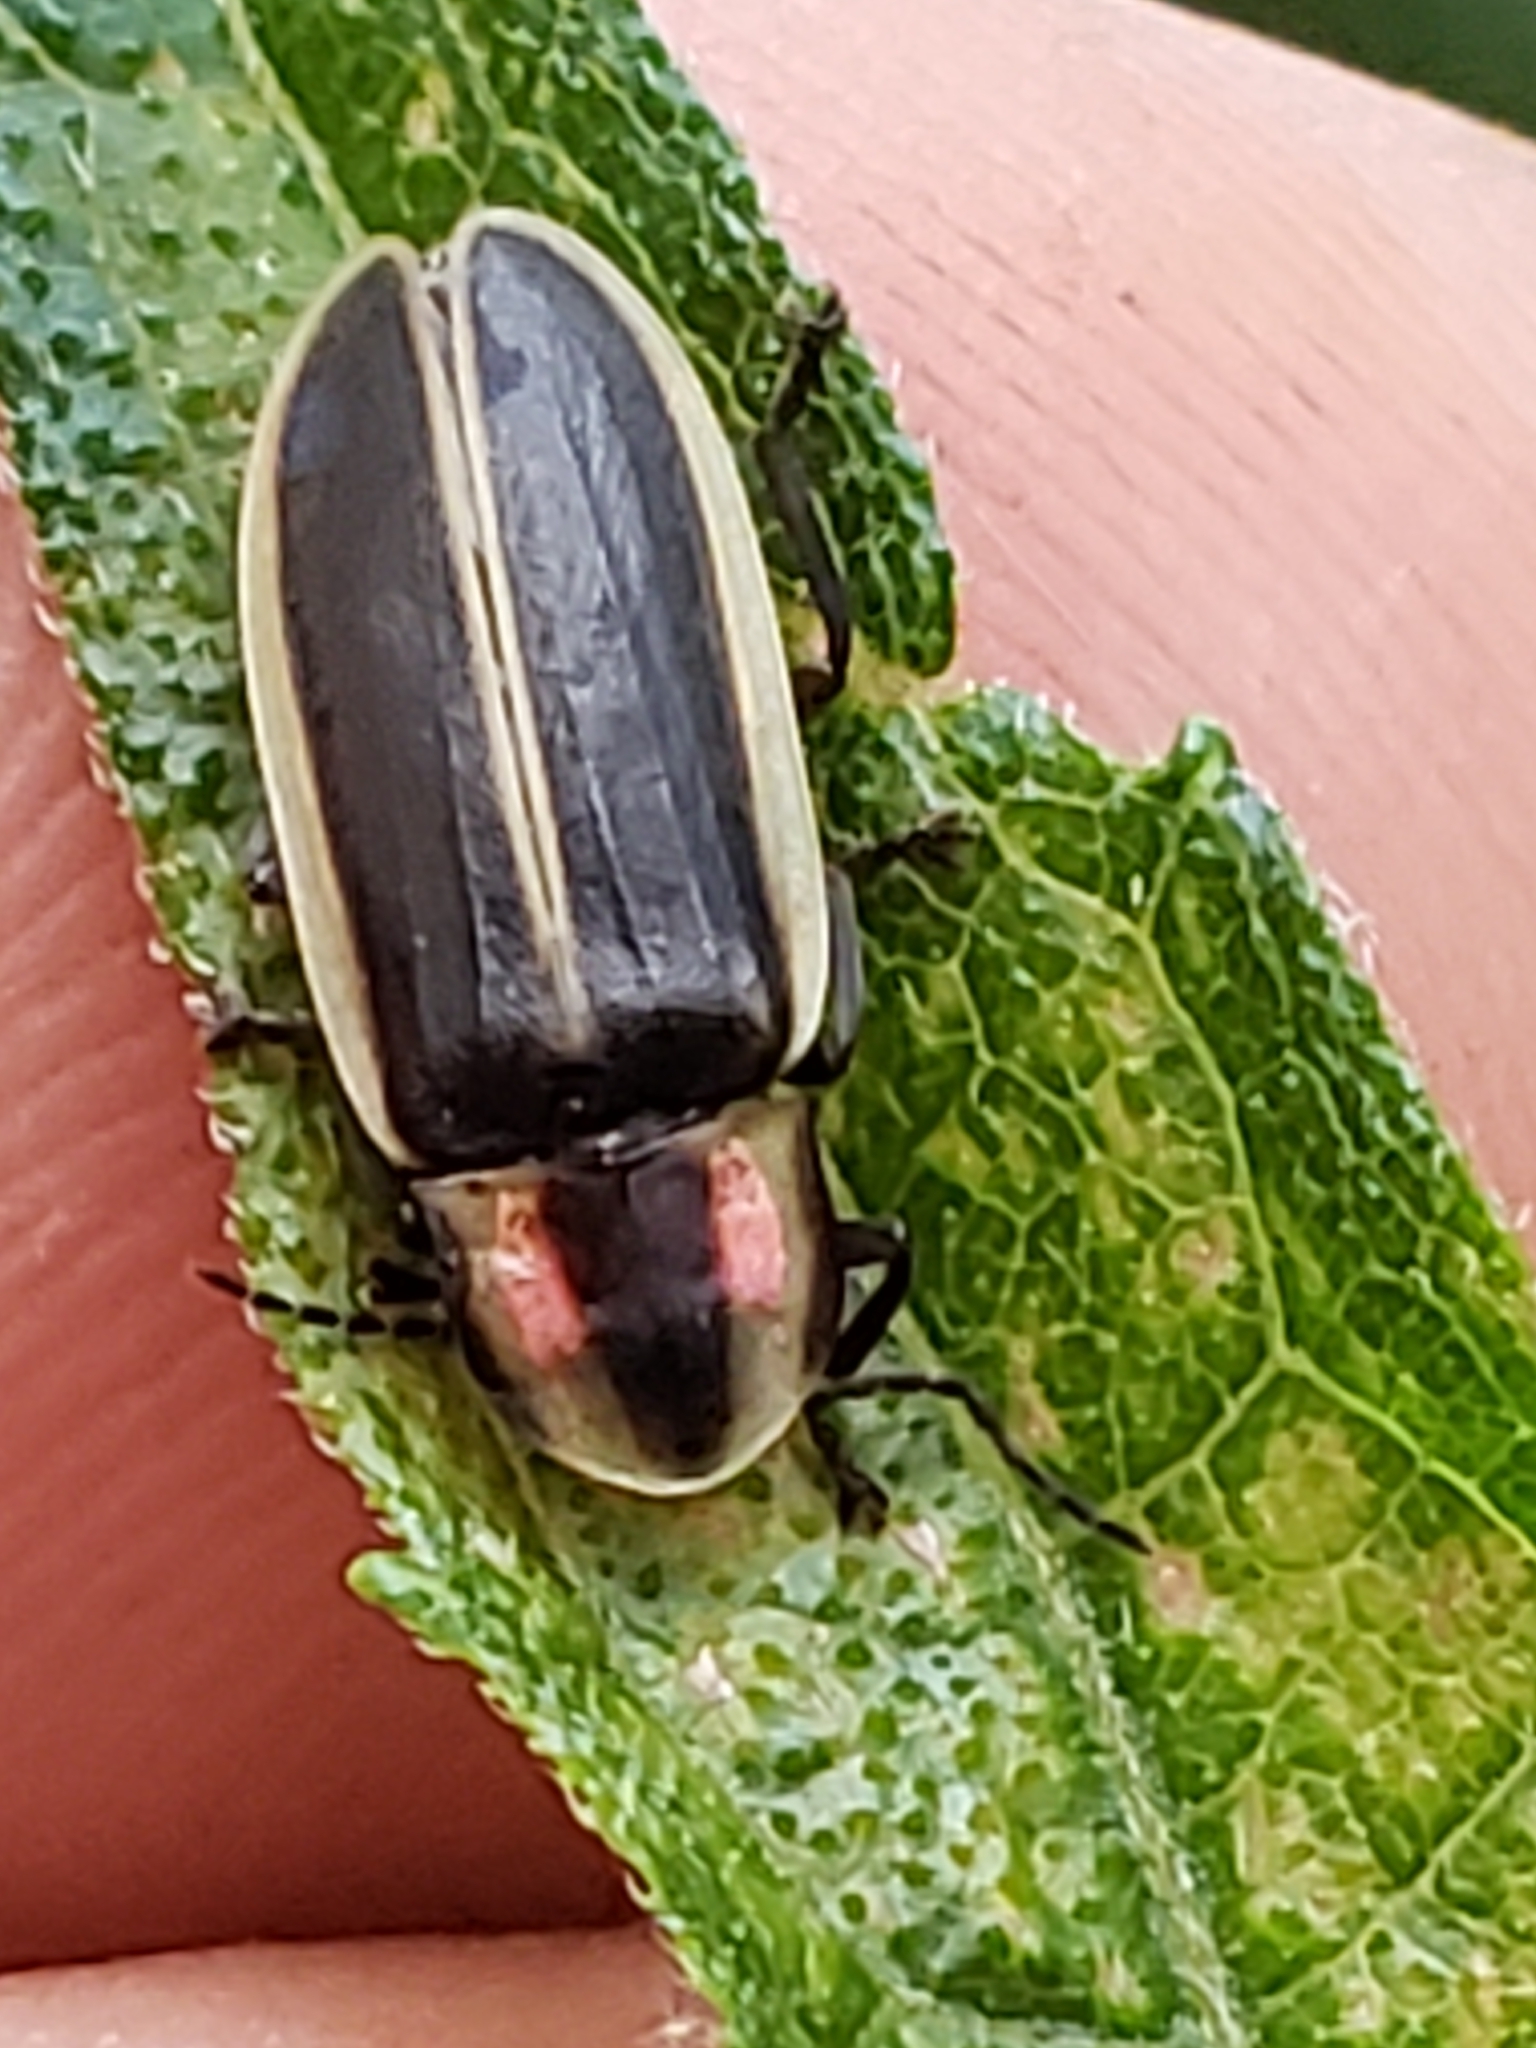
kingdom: Animalia
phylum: Arthropoda
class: Insecta
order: Coleoptera
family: Lampyridae
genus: Pyractomena
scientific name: Pyractomena angulata
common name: Candle firefly
